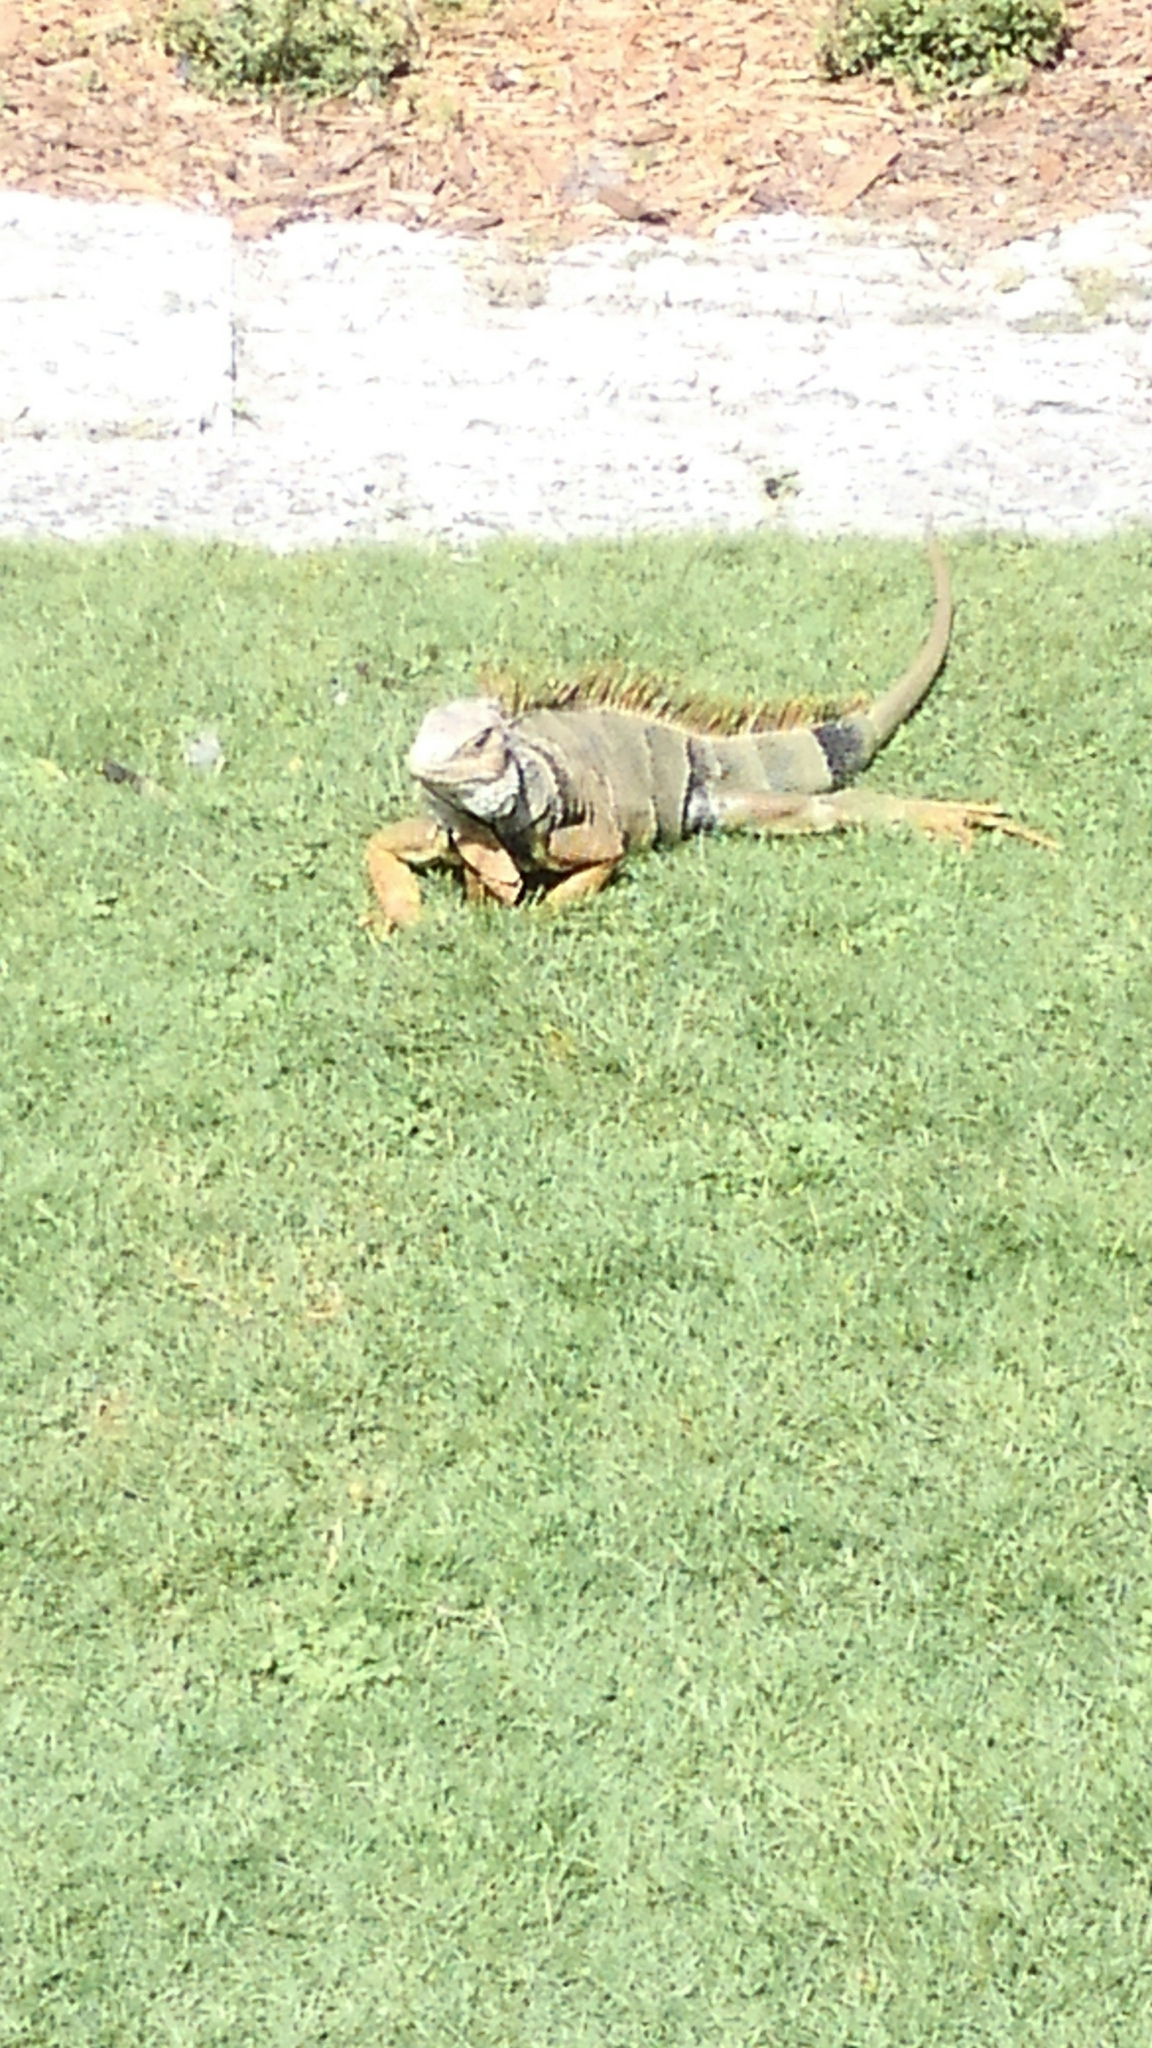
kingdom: Animalia
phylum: Chordata
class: Squamata
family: Iguanidae
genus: Iguana
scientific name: Iguana iguana
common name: Green iguana
